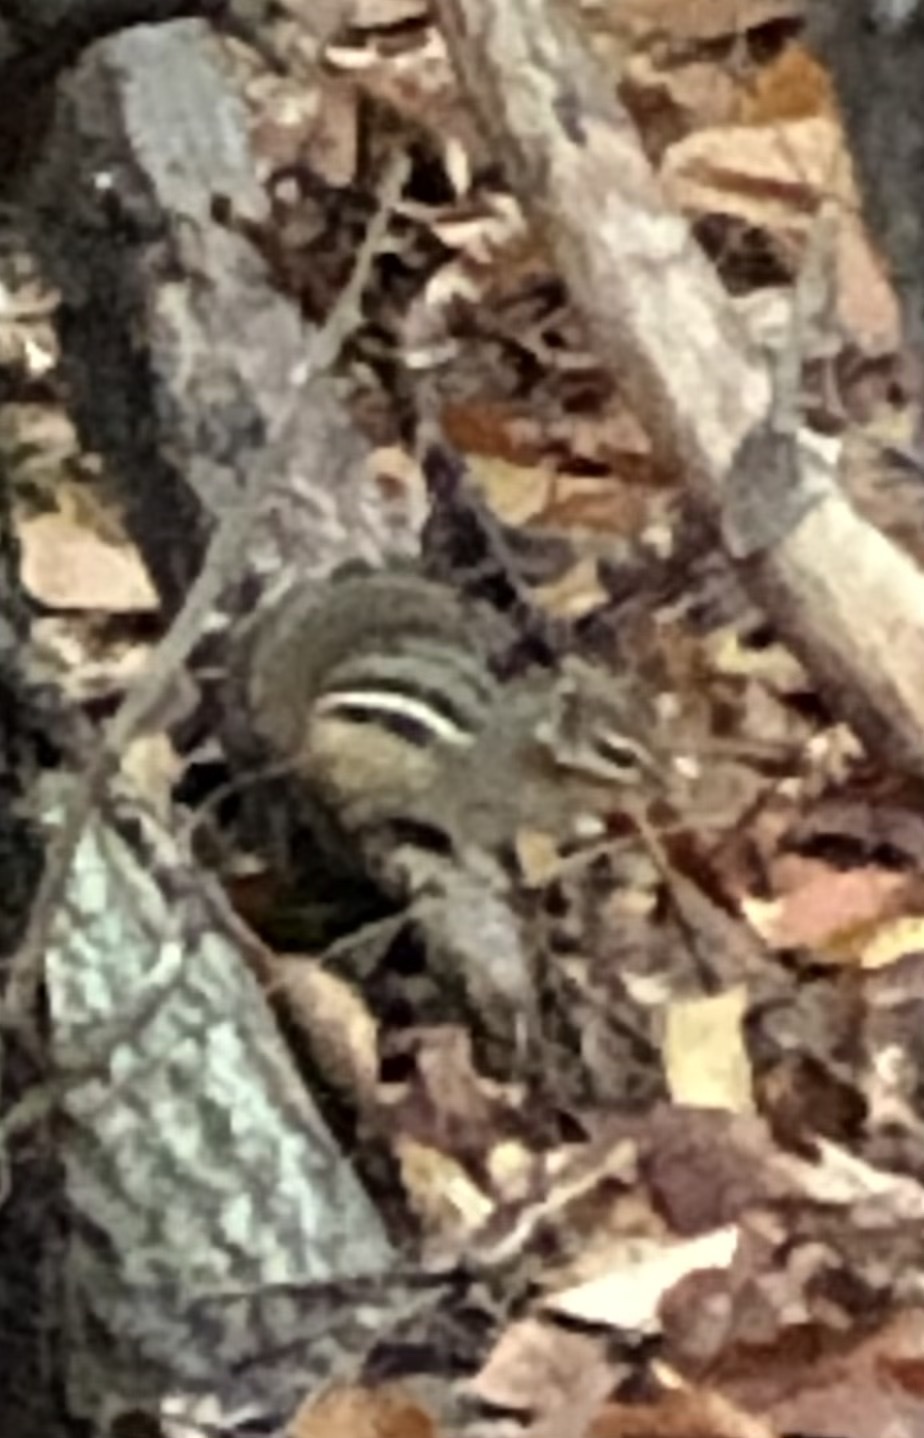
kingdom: Animalia
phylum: Chordata
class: Mammalia
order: Rodentia
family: Sciuridae
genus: Tamias
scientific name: Tamias striatus
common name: Eastern chipmunk
